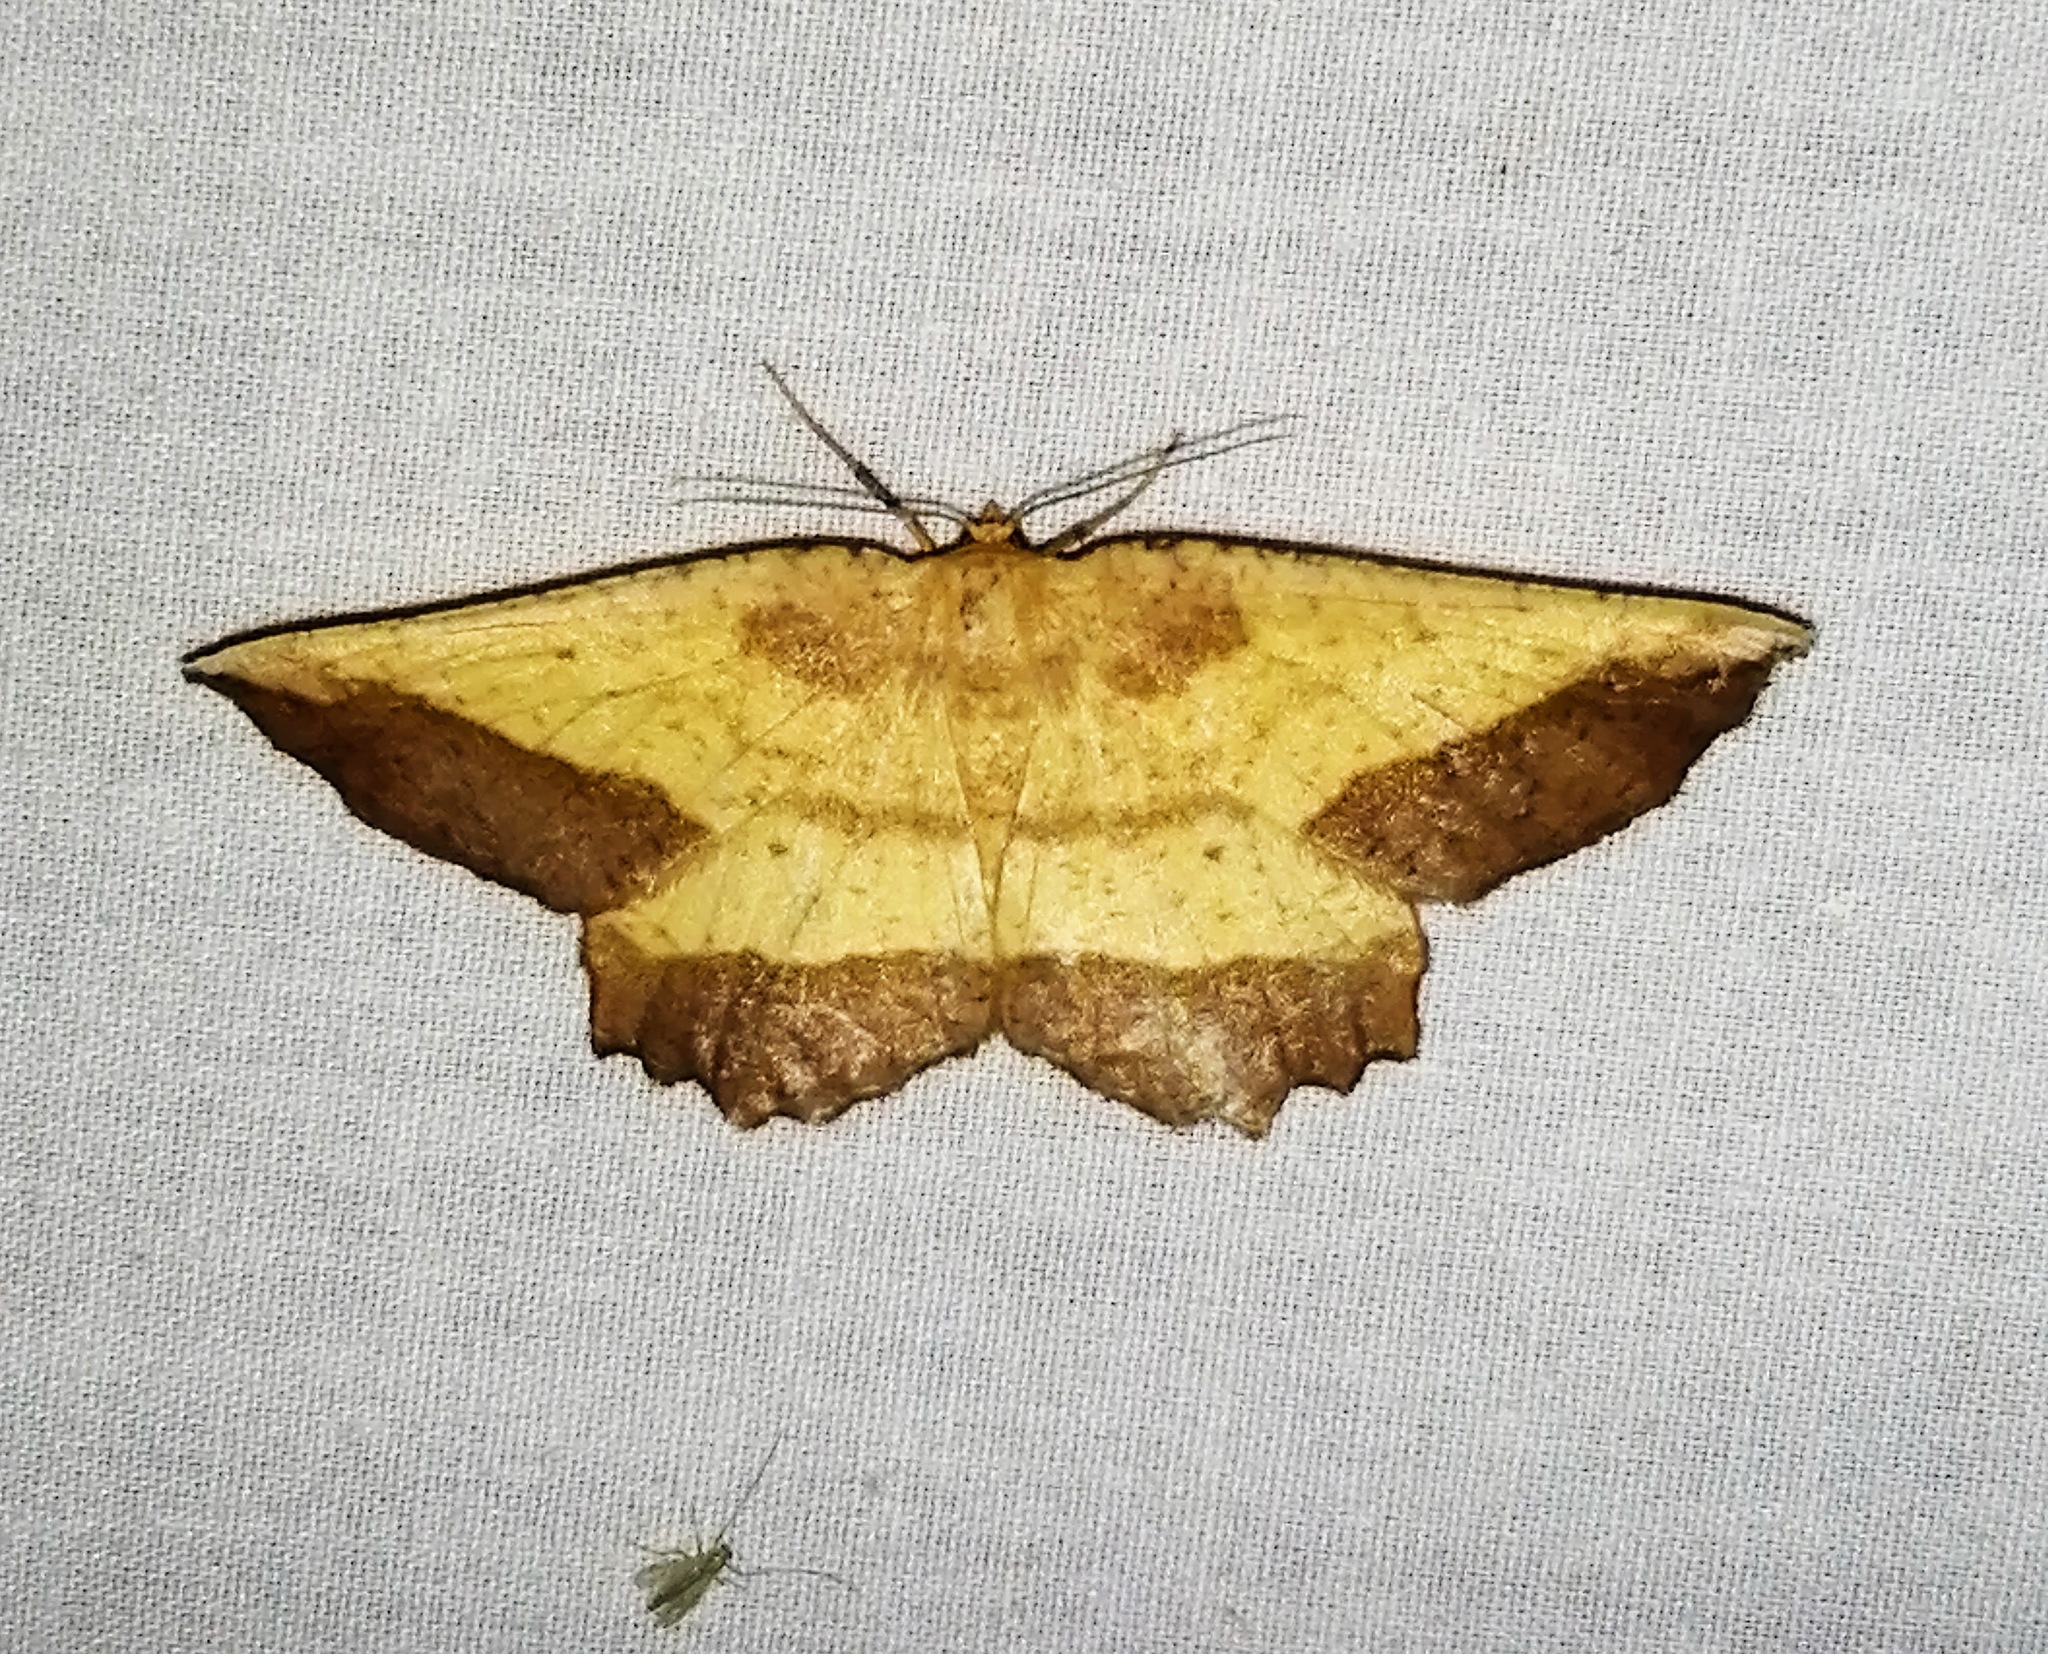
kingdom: Animalia
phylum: Arthropoda
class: Insecta
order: Lepidoptera
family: Geometridae
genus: Euchlaena
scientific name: Euchlaena serrata
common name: Saw wing
